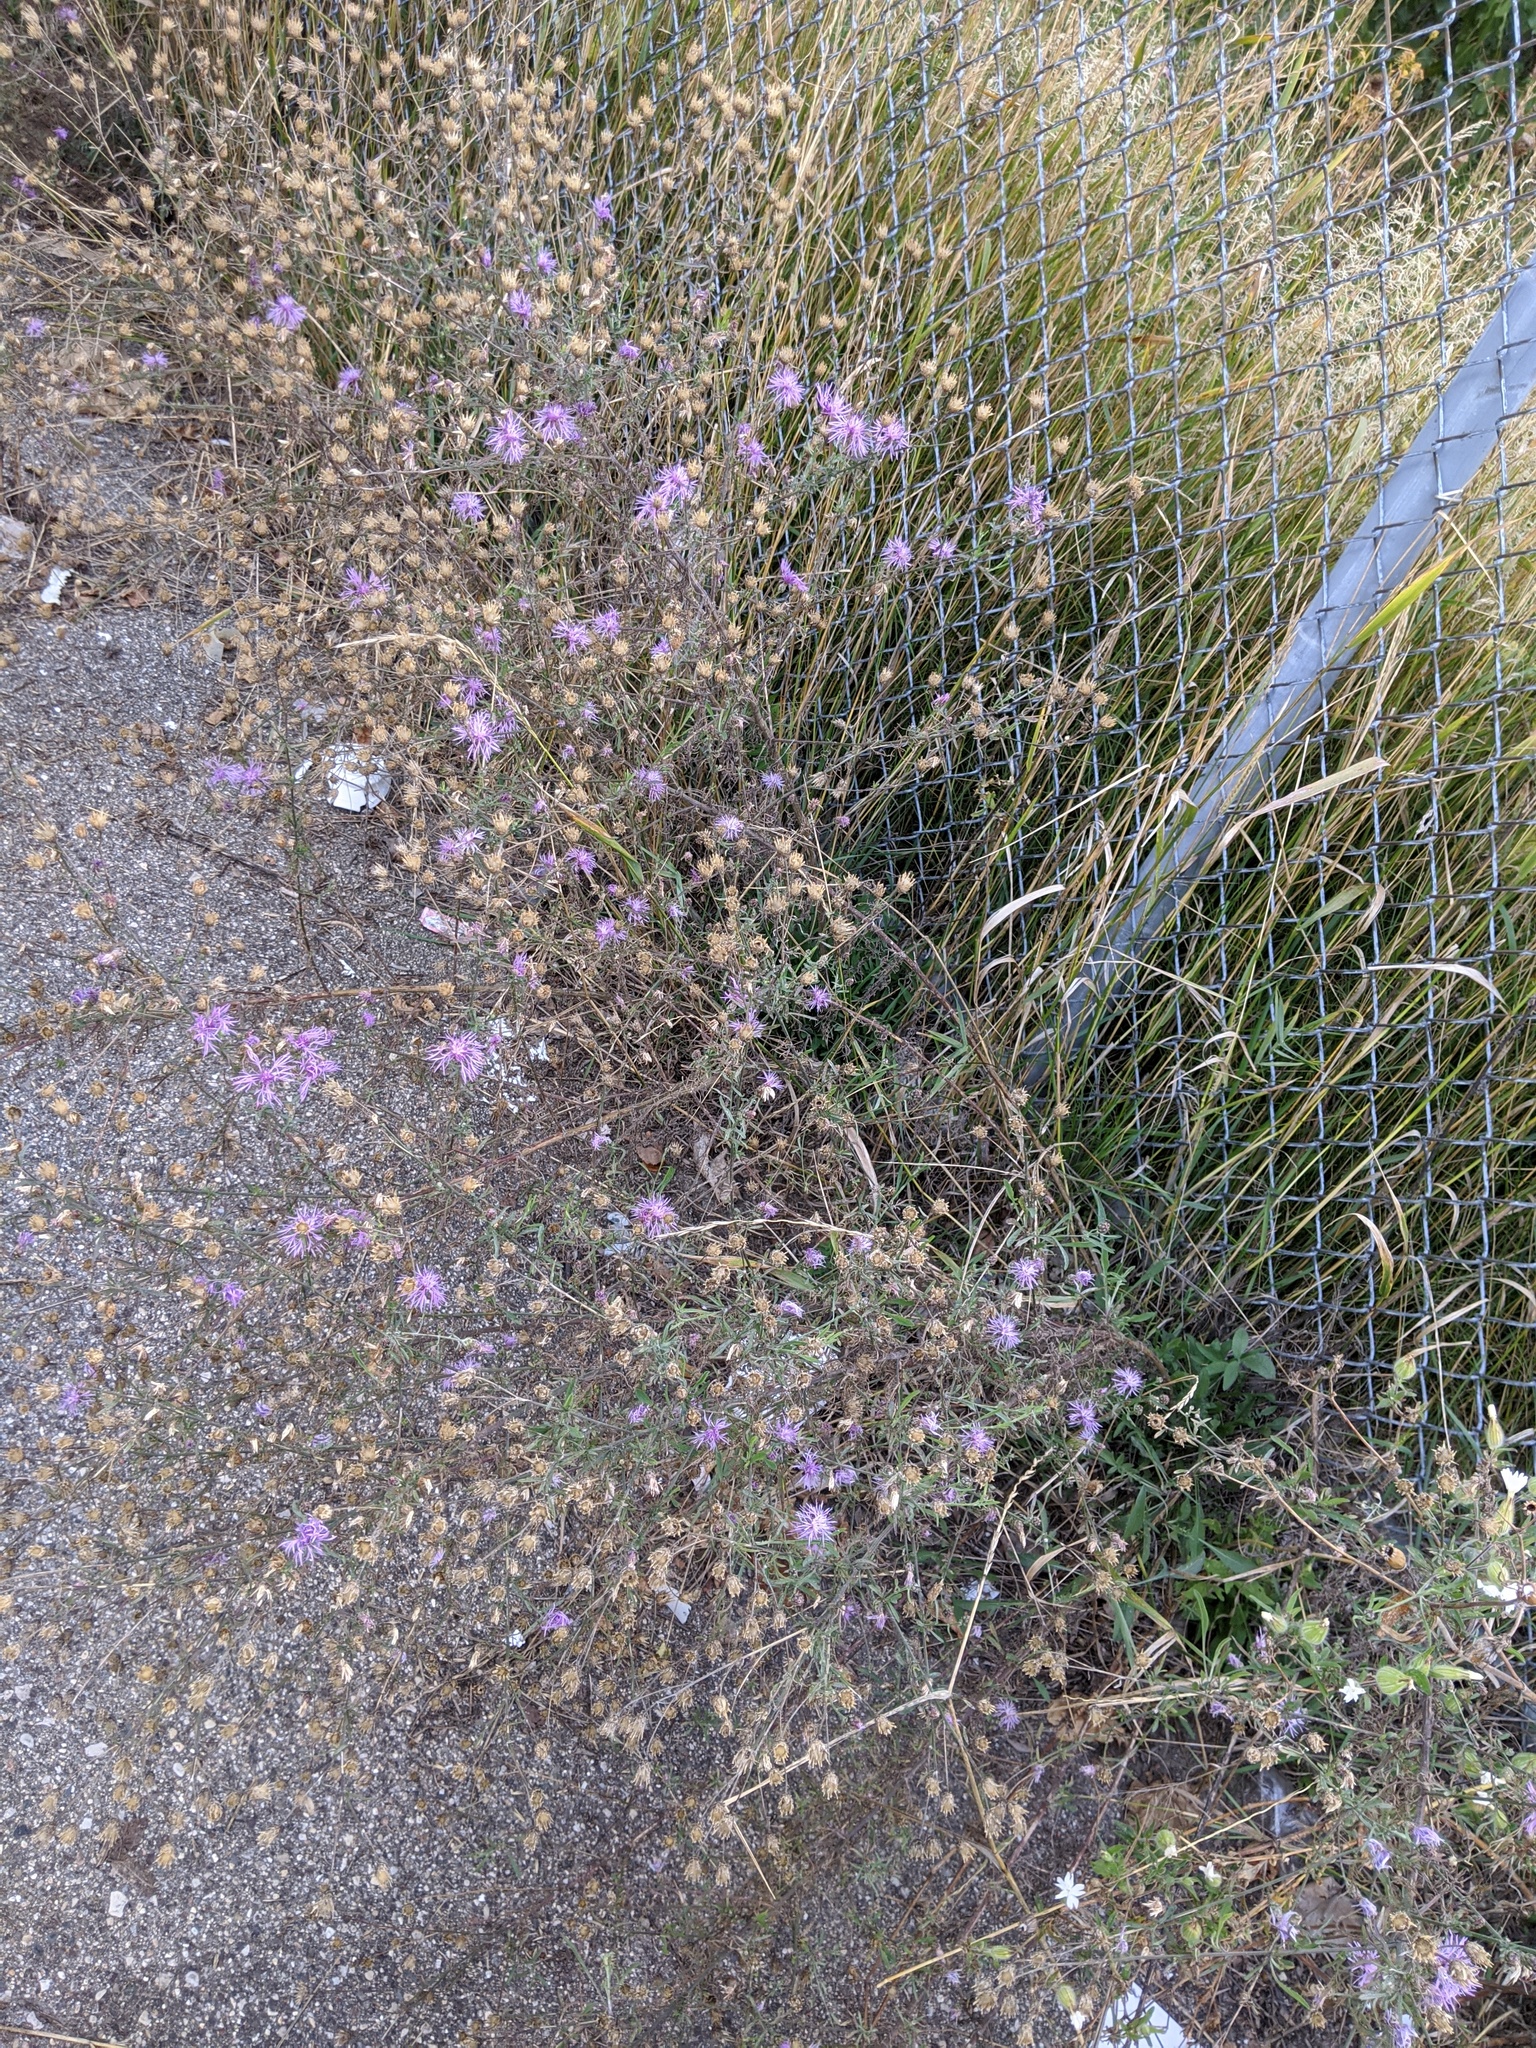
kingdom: Plantae
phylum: Tracheophyta
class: Magnoliopsida
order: Asterales
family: Asteraceae
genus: Centaurea
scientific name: Centaurea stoebe
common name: Spotted knapweed
